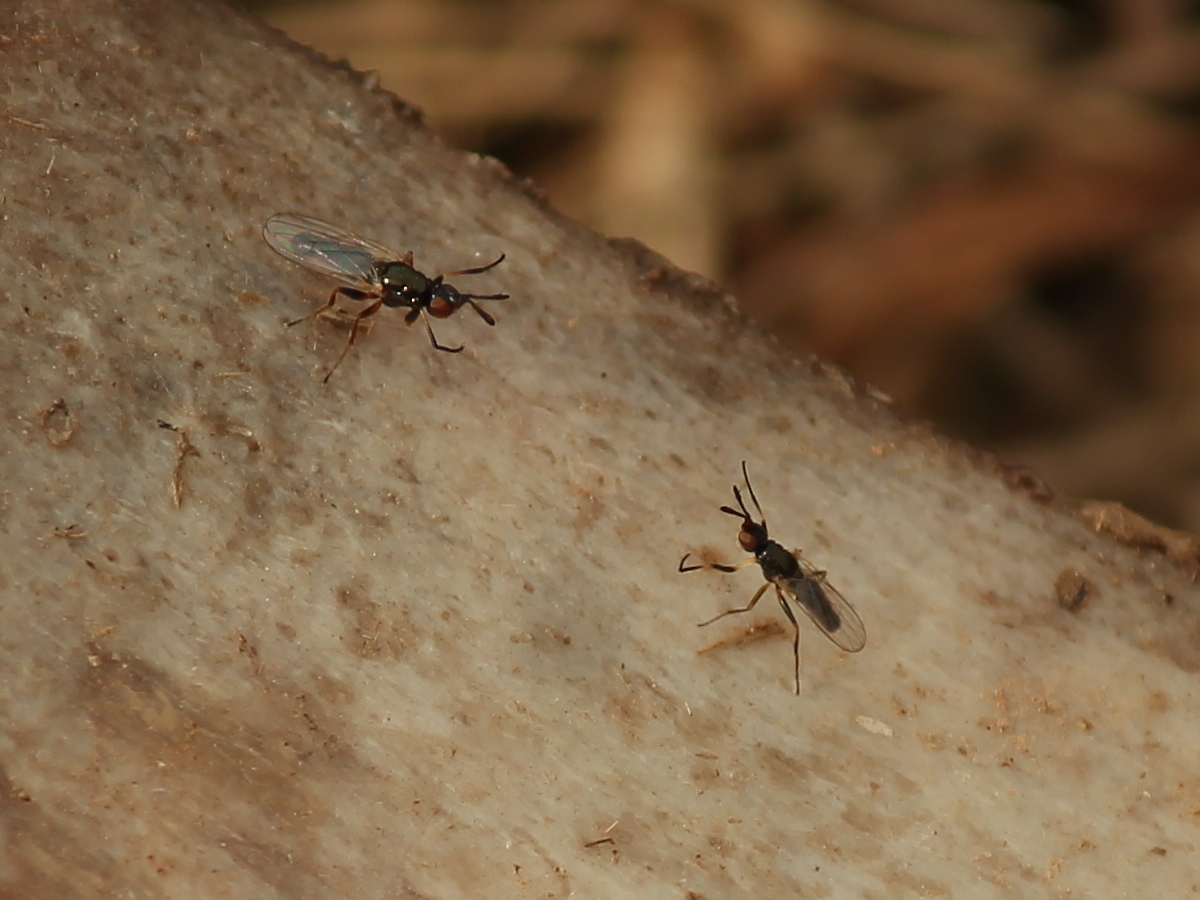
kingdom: Animalia
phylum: Arthropoda
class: Insecta
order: Diptera
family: Piophilidae
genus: Prochyliza
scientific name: Prochyliza xanthostoma
